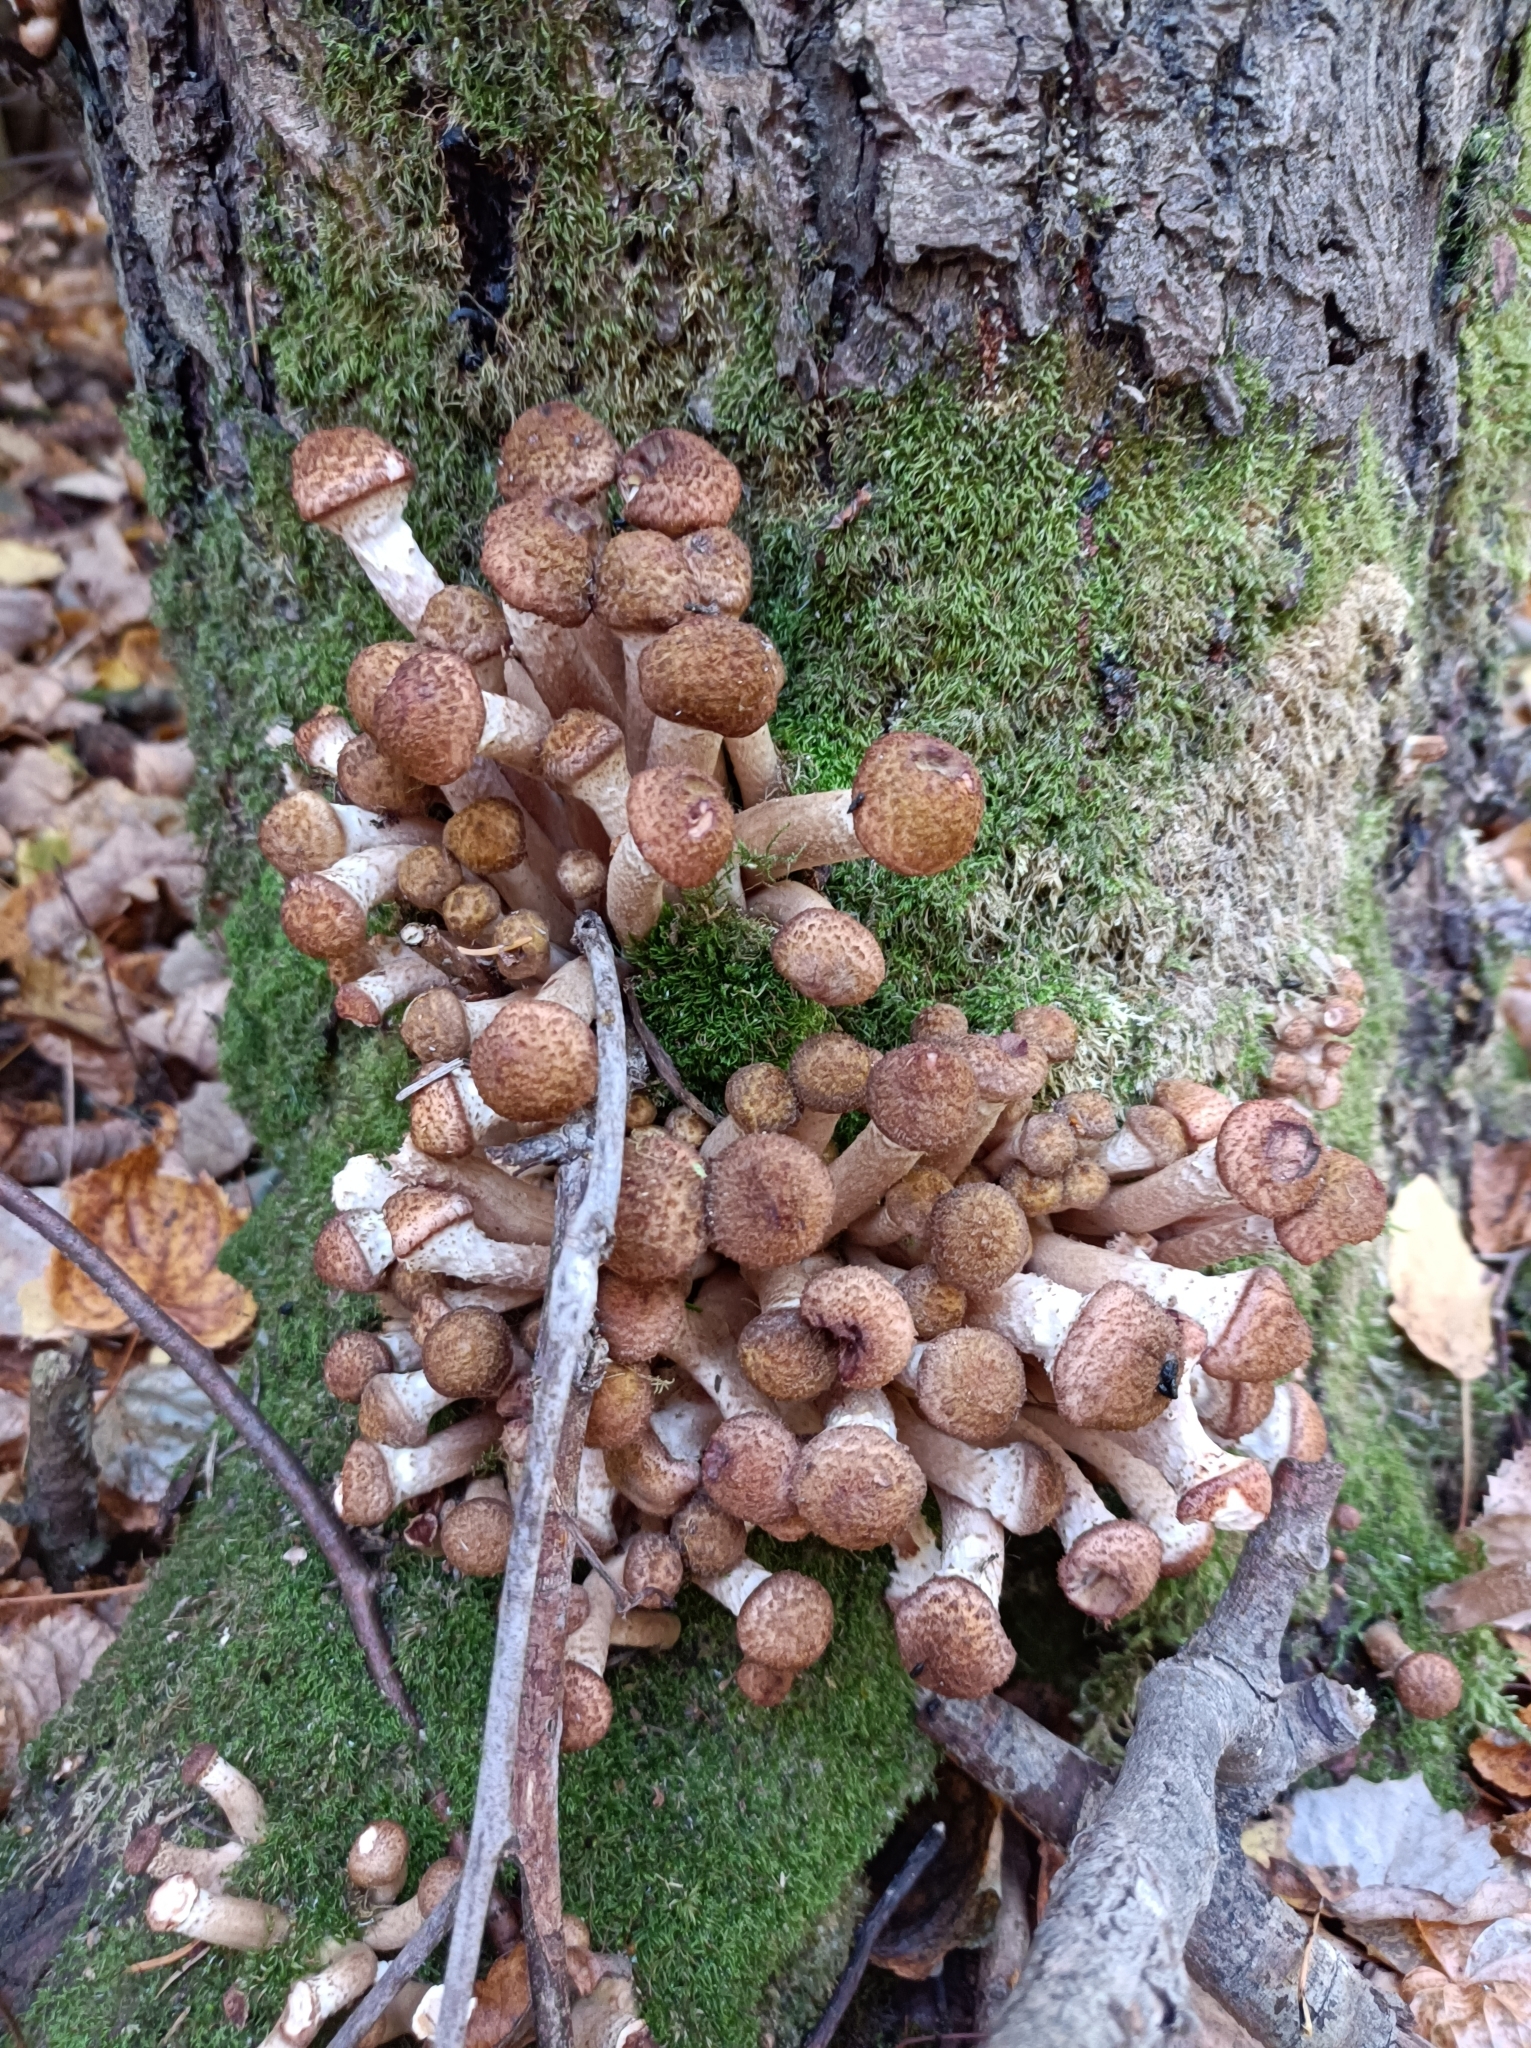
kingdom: Fungi
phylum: Basidiomycota
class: Agaricomycetes
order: Agaricales
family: Physalacriaceae
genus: Armillaria
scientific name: Armillaria borealis
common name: Northern honey fungus
